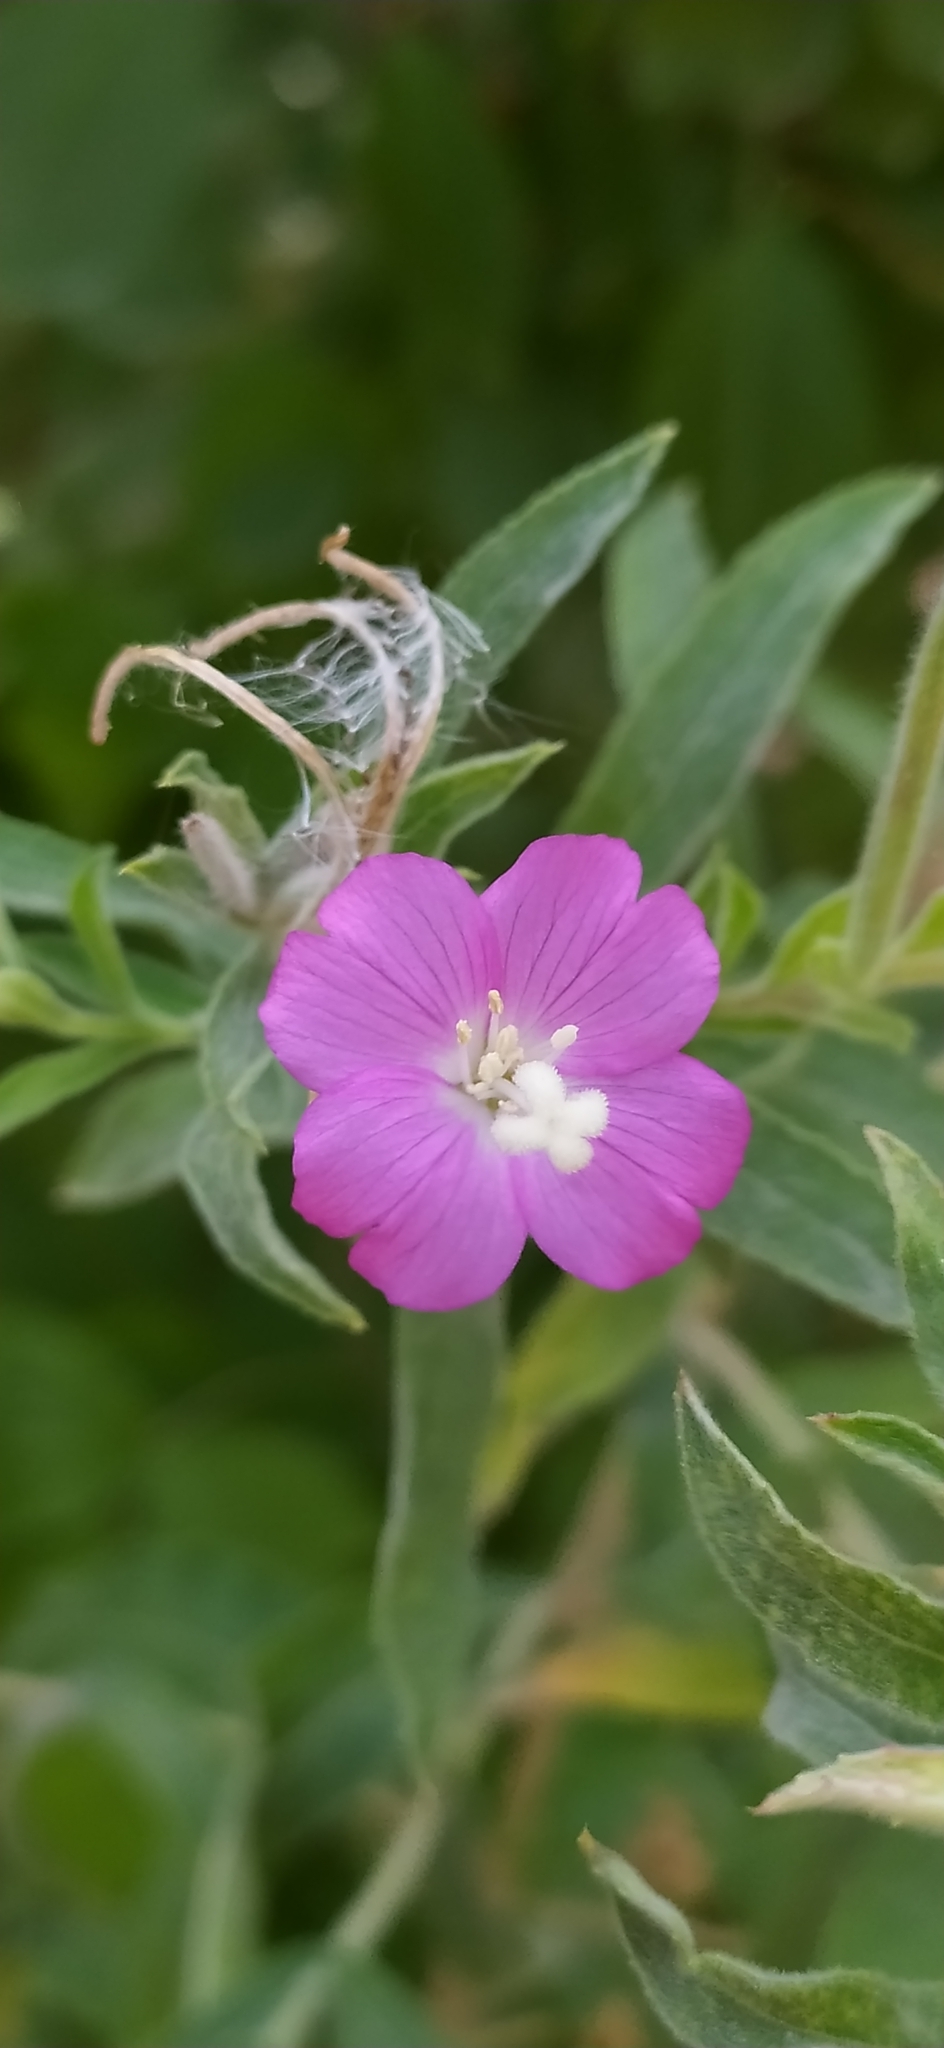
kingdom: Plantae
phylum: Tracheophyta
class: Magnoliopsida
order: Myrtales
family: Onagraceae
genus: Epilobium
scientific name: Epilobium hirsutum
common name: Great willowherb
